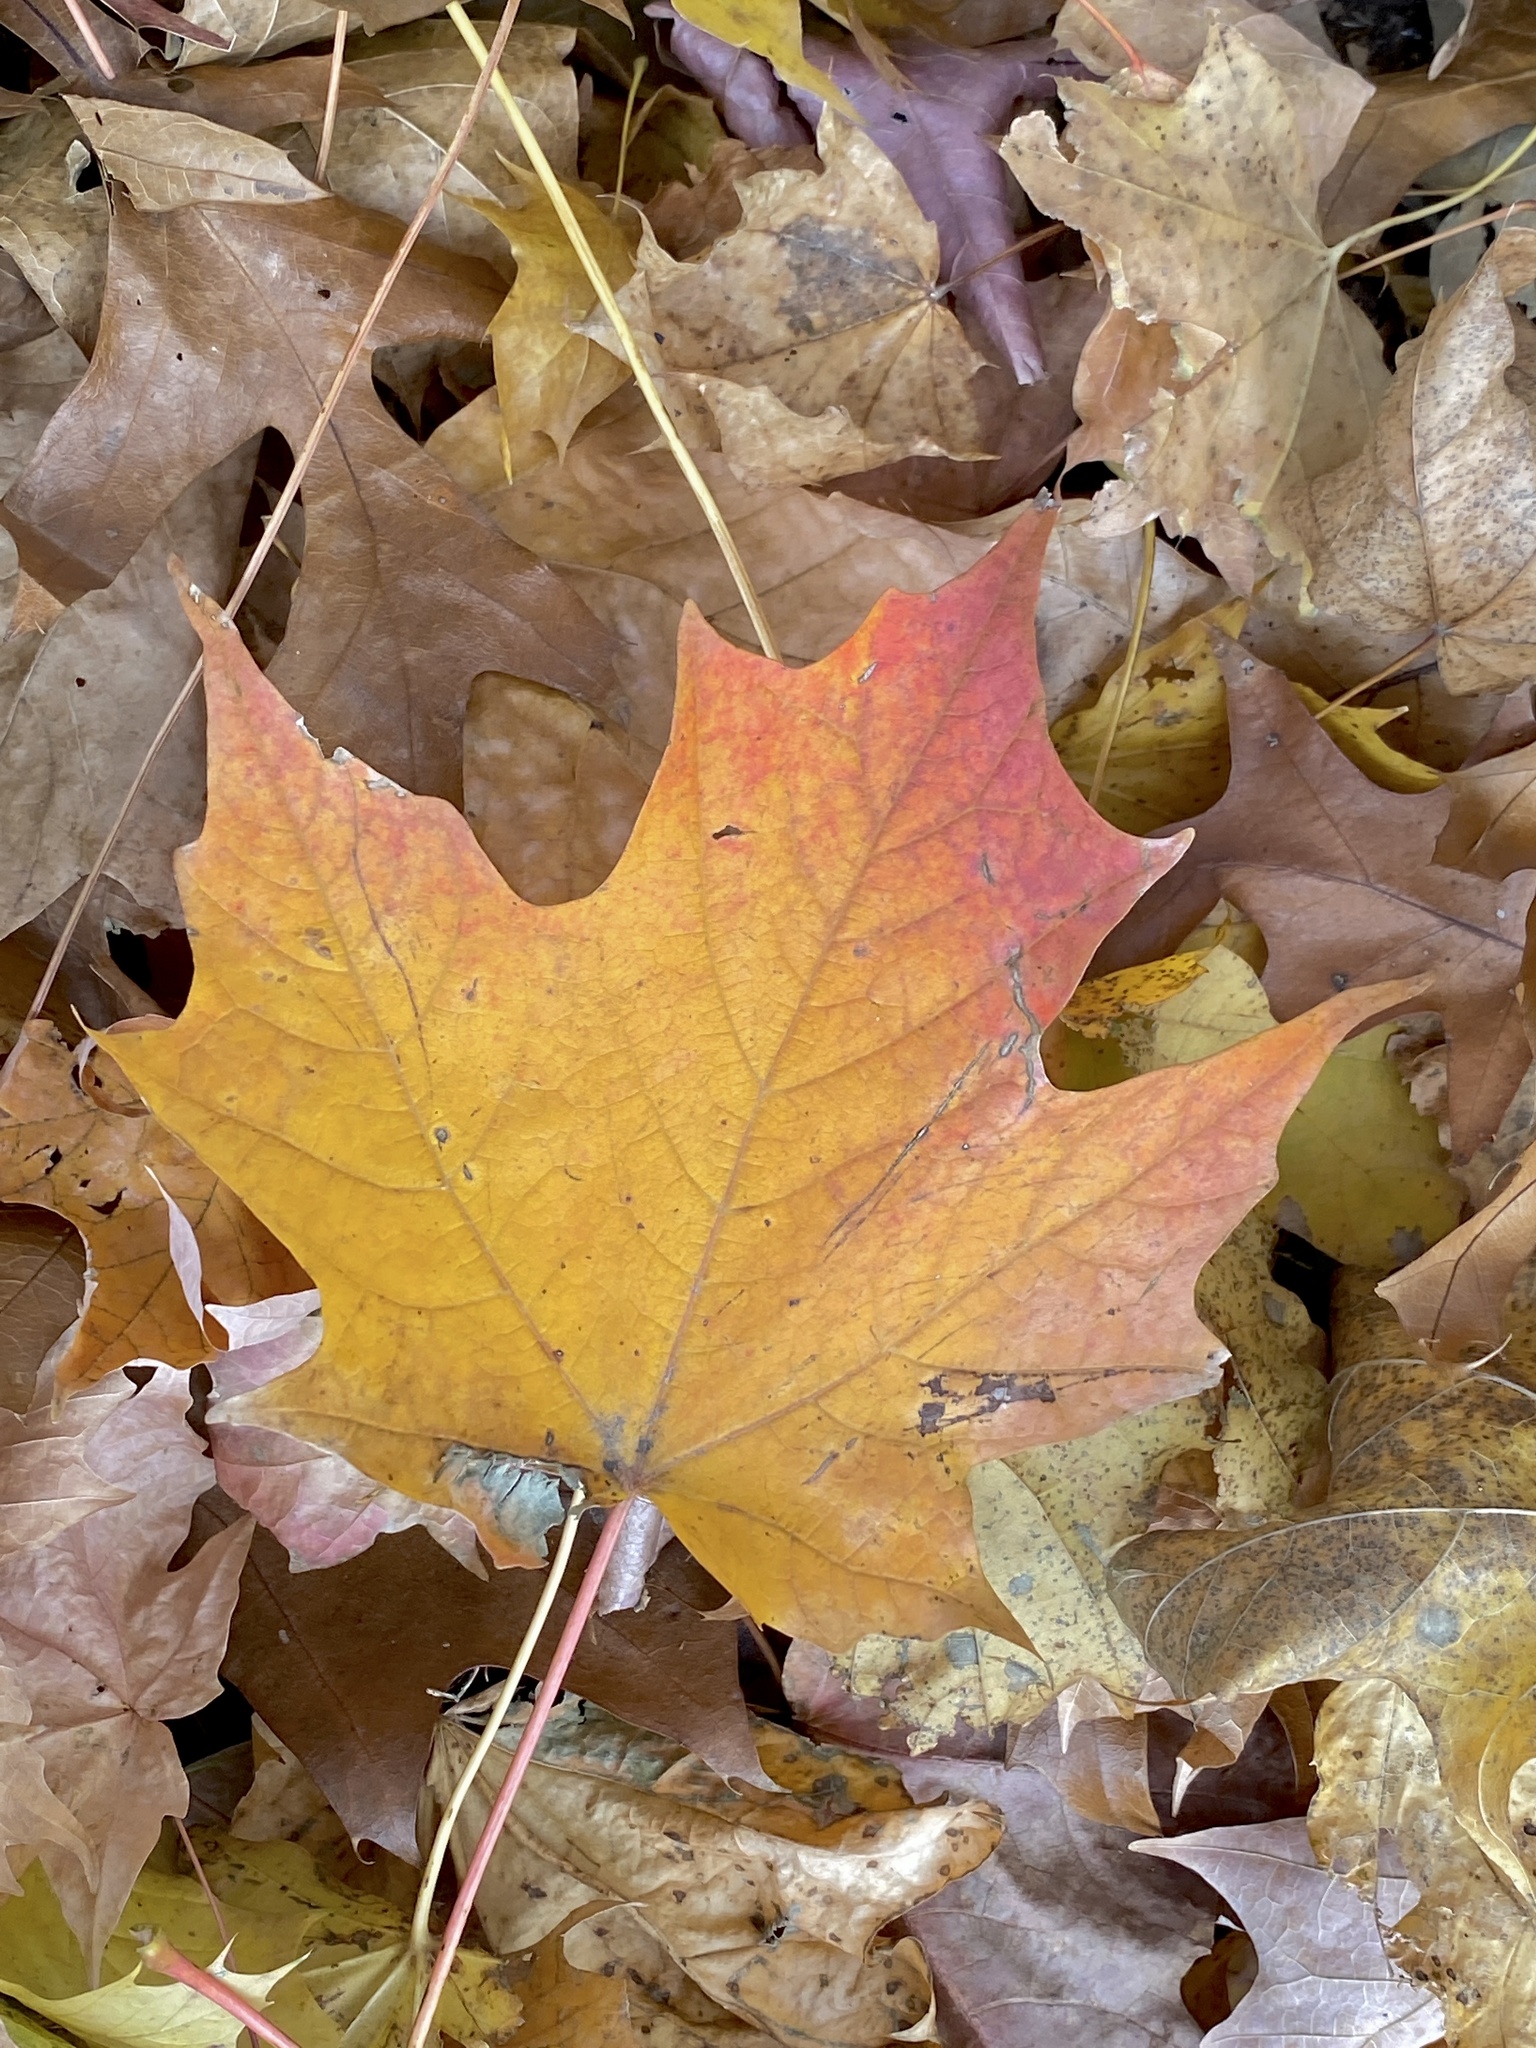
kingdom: Plantae
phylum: Tracheophyta
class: Magnoliopsida
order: Sapindales
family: Sapindaceae
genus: Acer
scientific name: Acer saccharum
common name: Sugar maple
